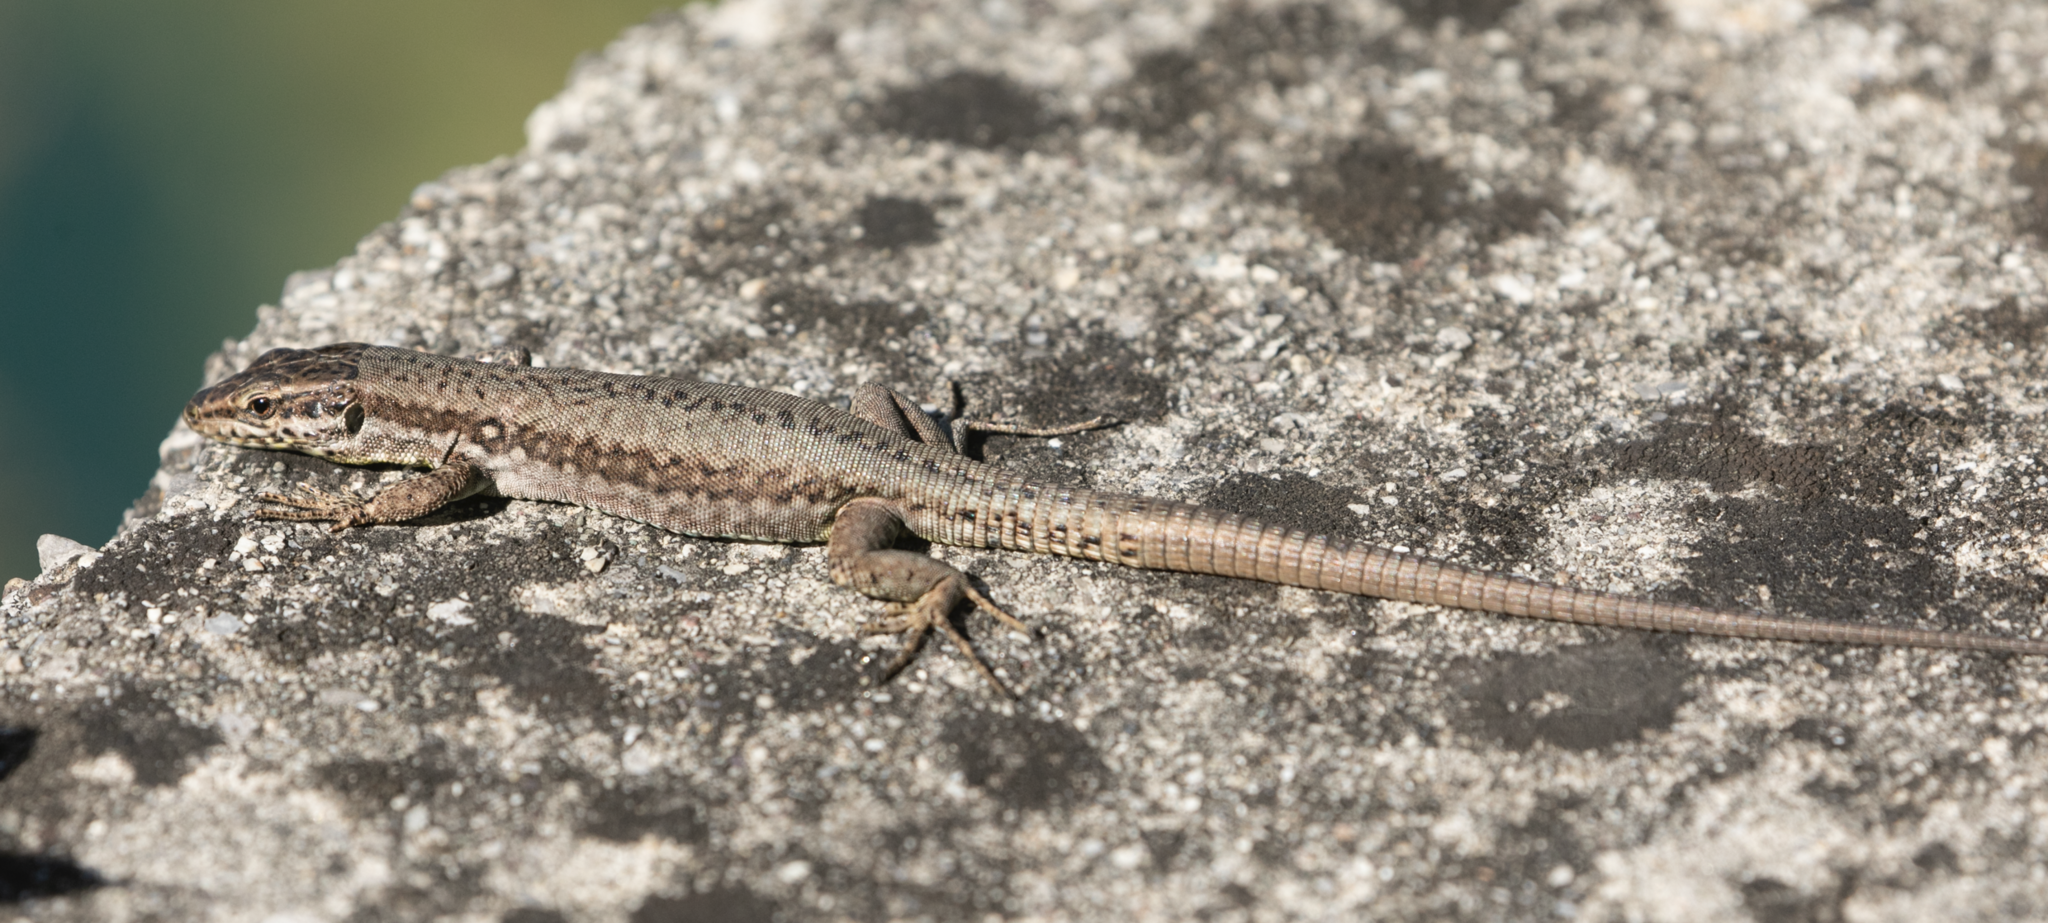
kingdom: Animalia
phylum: Chordata
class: Squamata
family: Lacertidae
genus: Podarcis
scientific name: Podarcis muralis
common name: Common wall lizard
